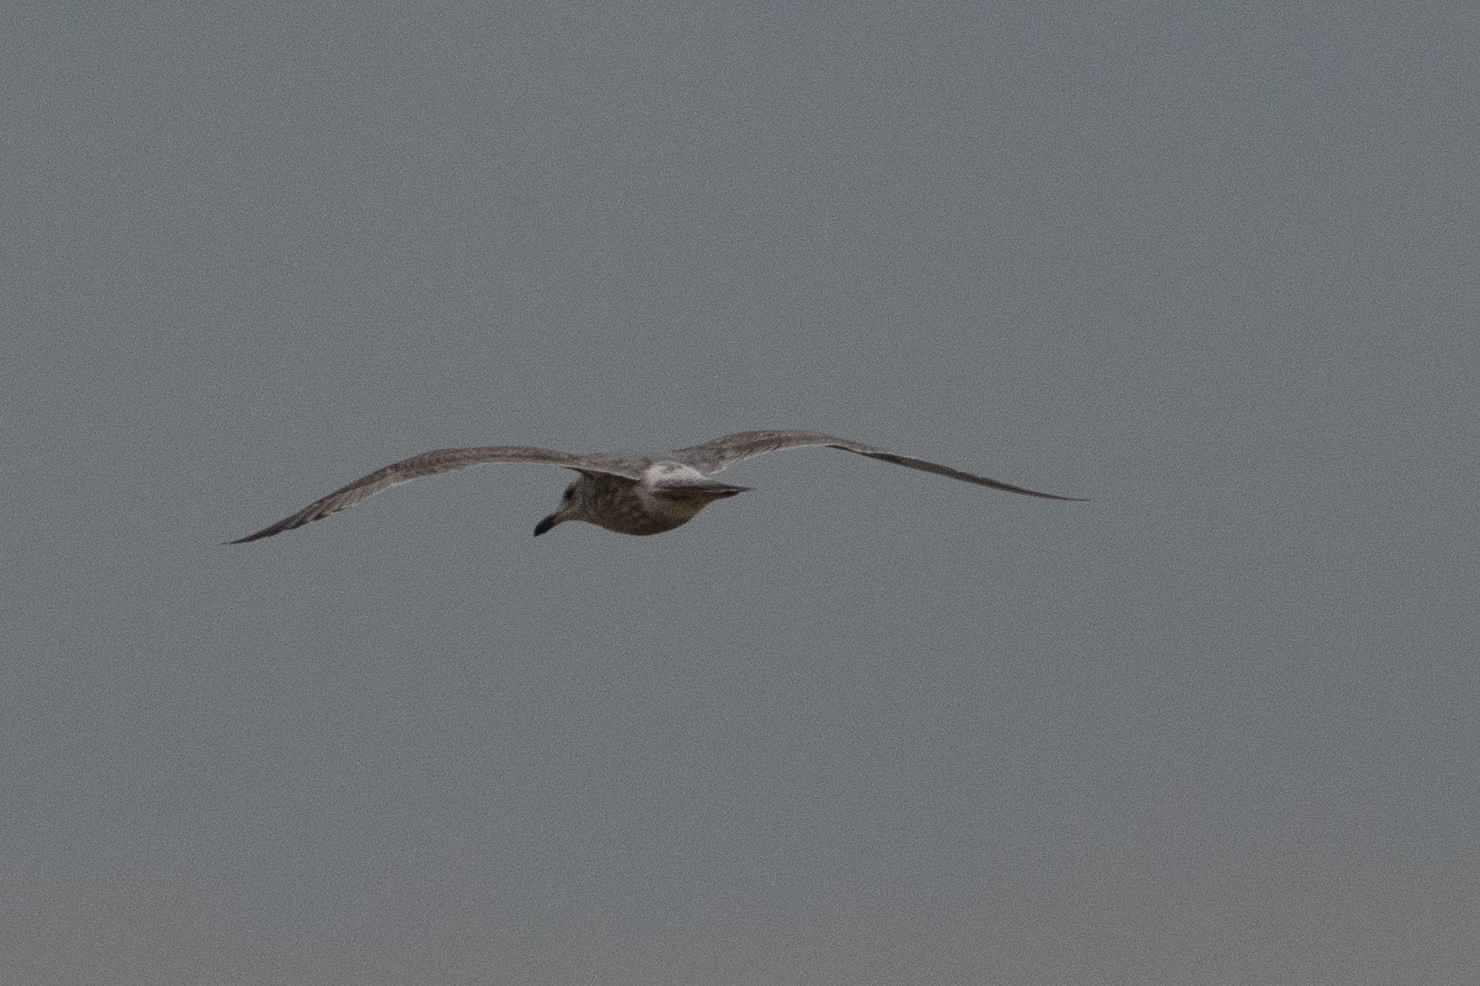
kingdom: Animalia
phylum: Chordata
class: Aves
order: Charadriiformes
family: Laridae
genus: Larus
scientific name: Larus
